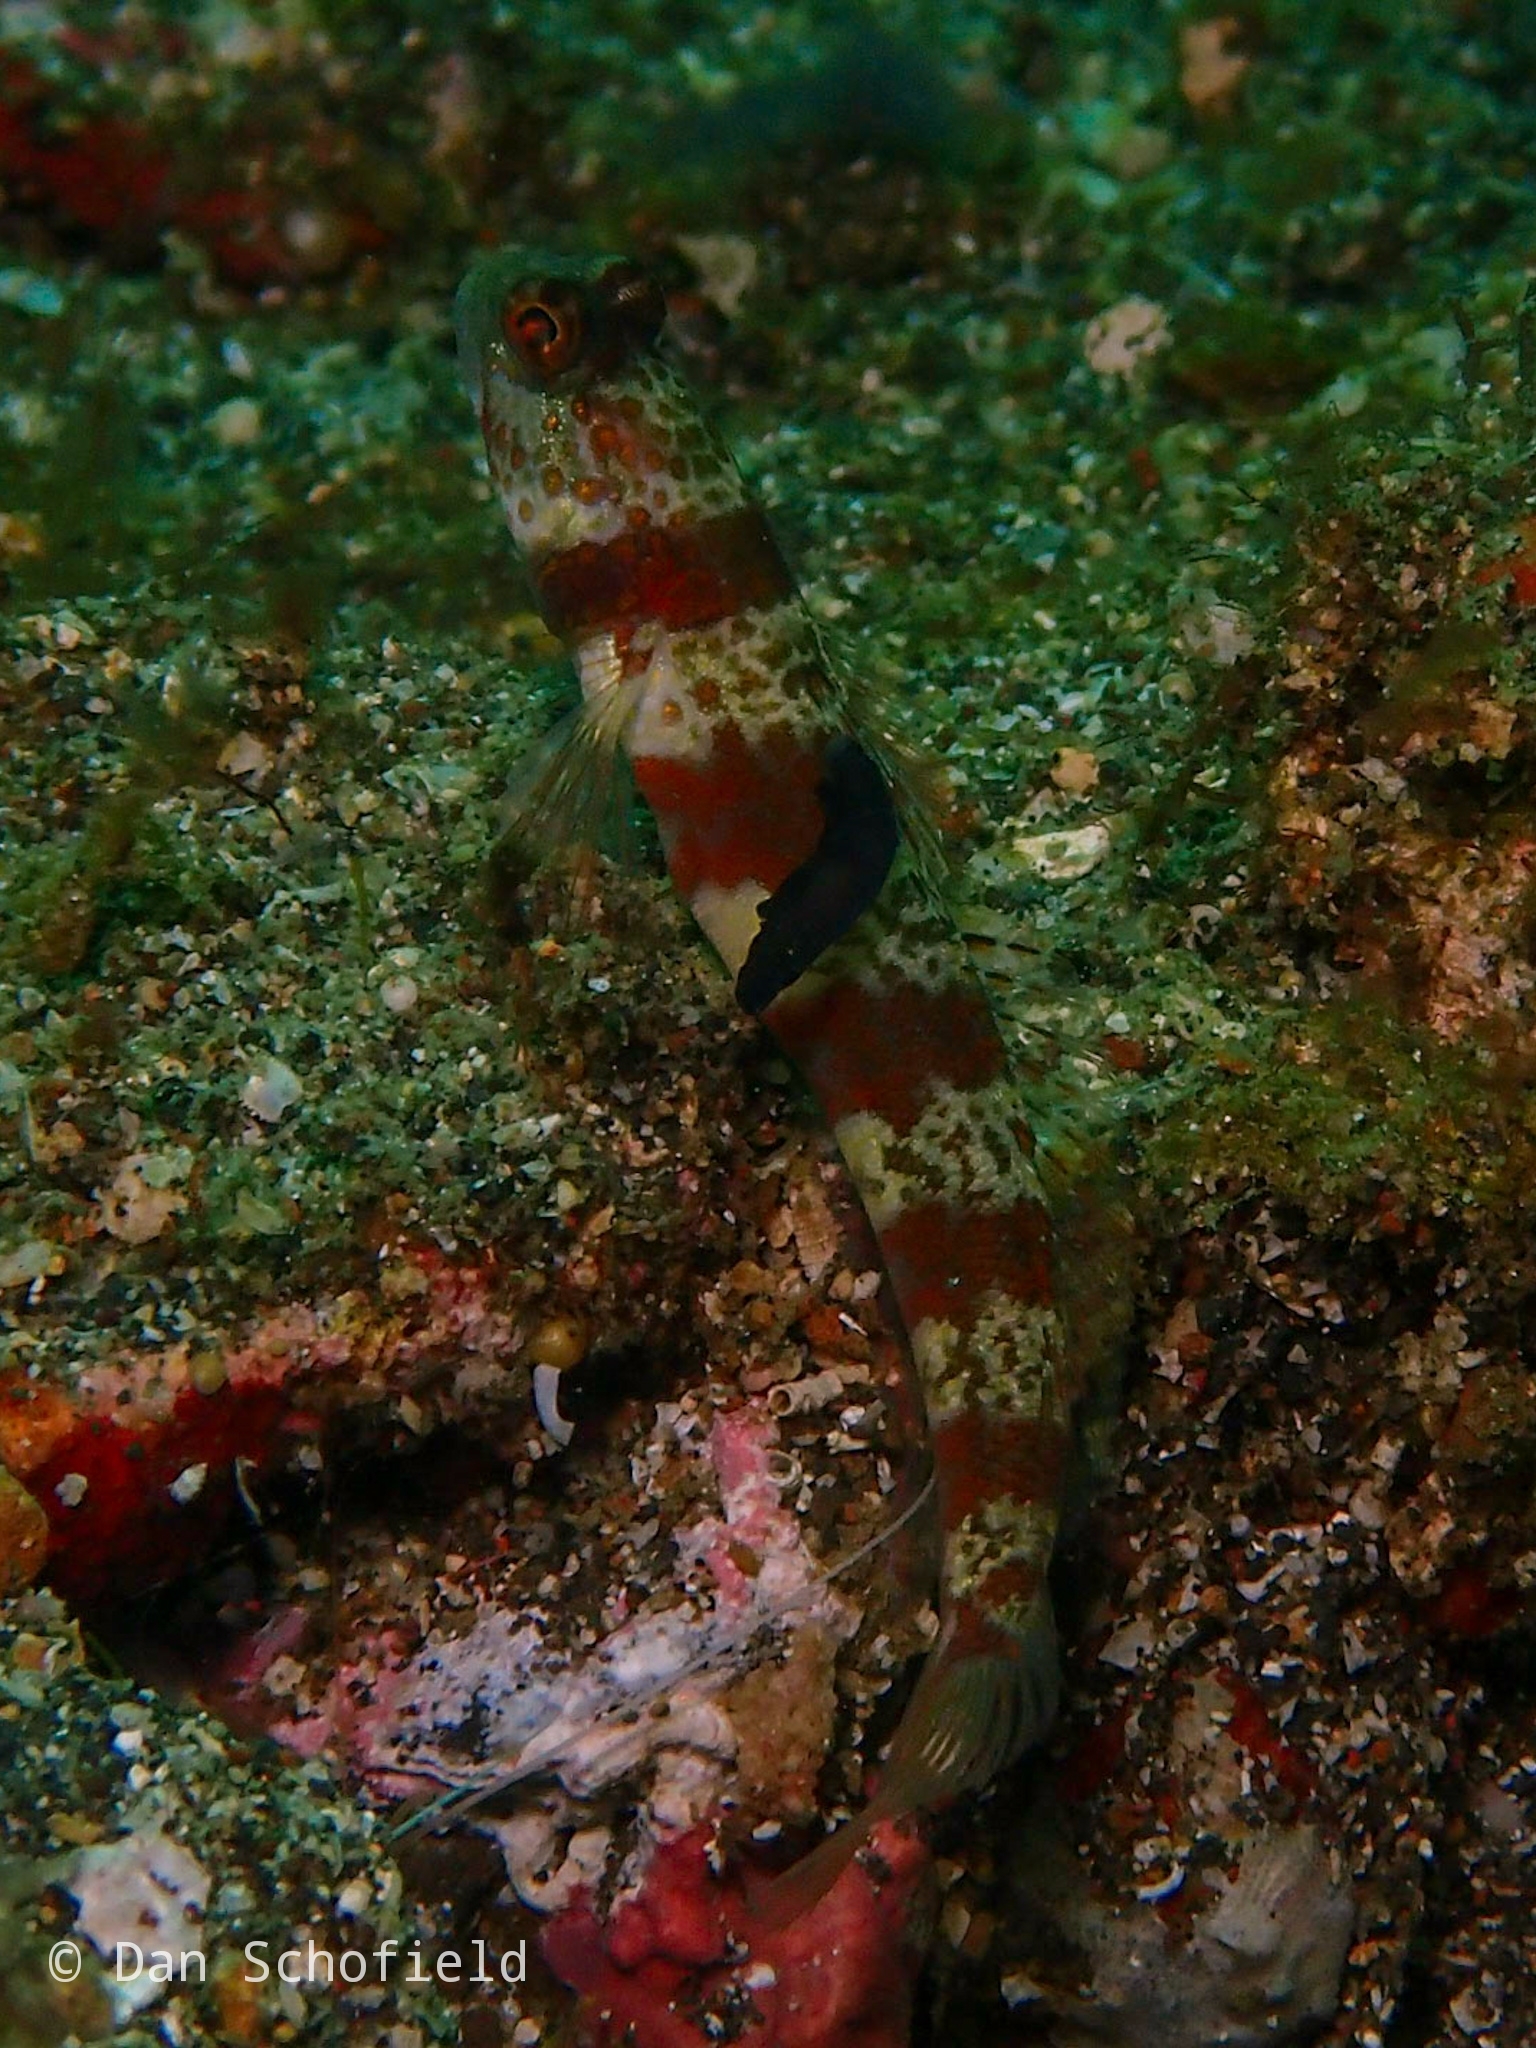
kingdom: Animalia
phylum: Chordata
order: Perciformes
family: Gobiidae
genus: Amblyeleotris
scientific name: Amblyeleotris periophthalma
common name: Periophthalma prawn-goby
